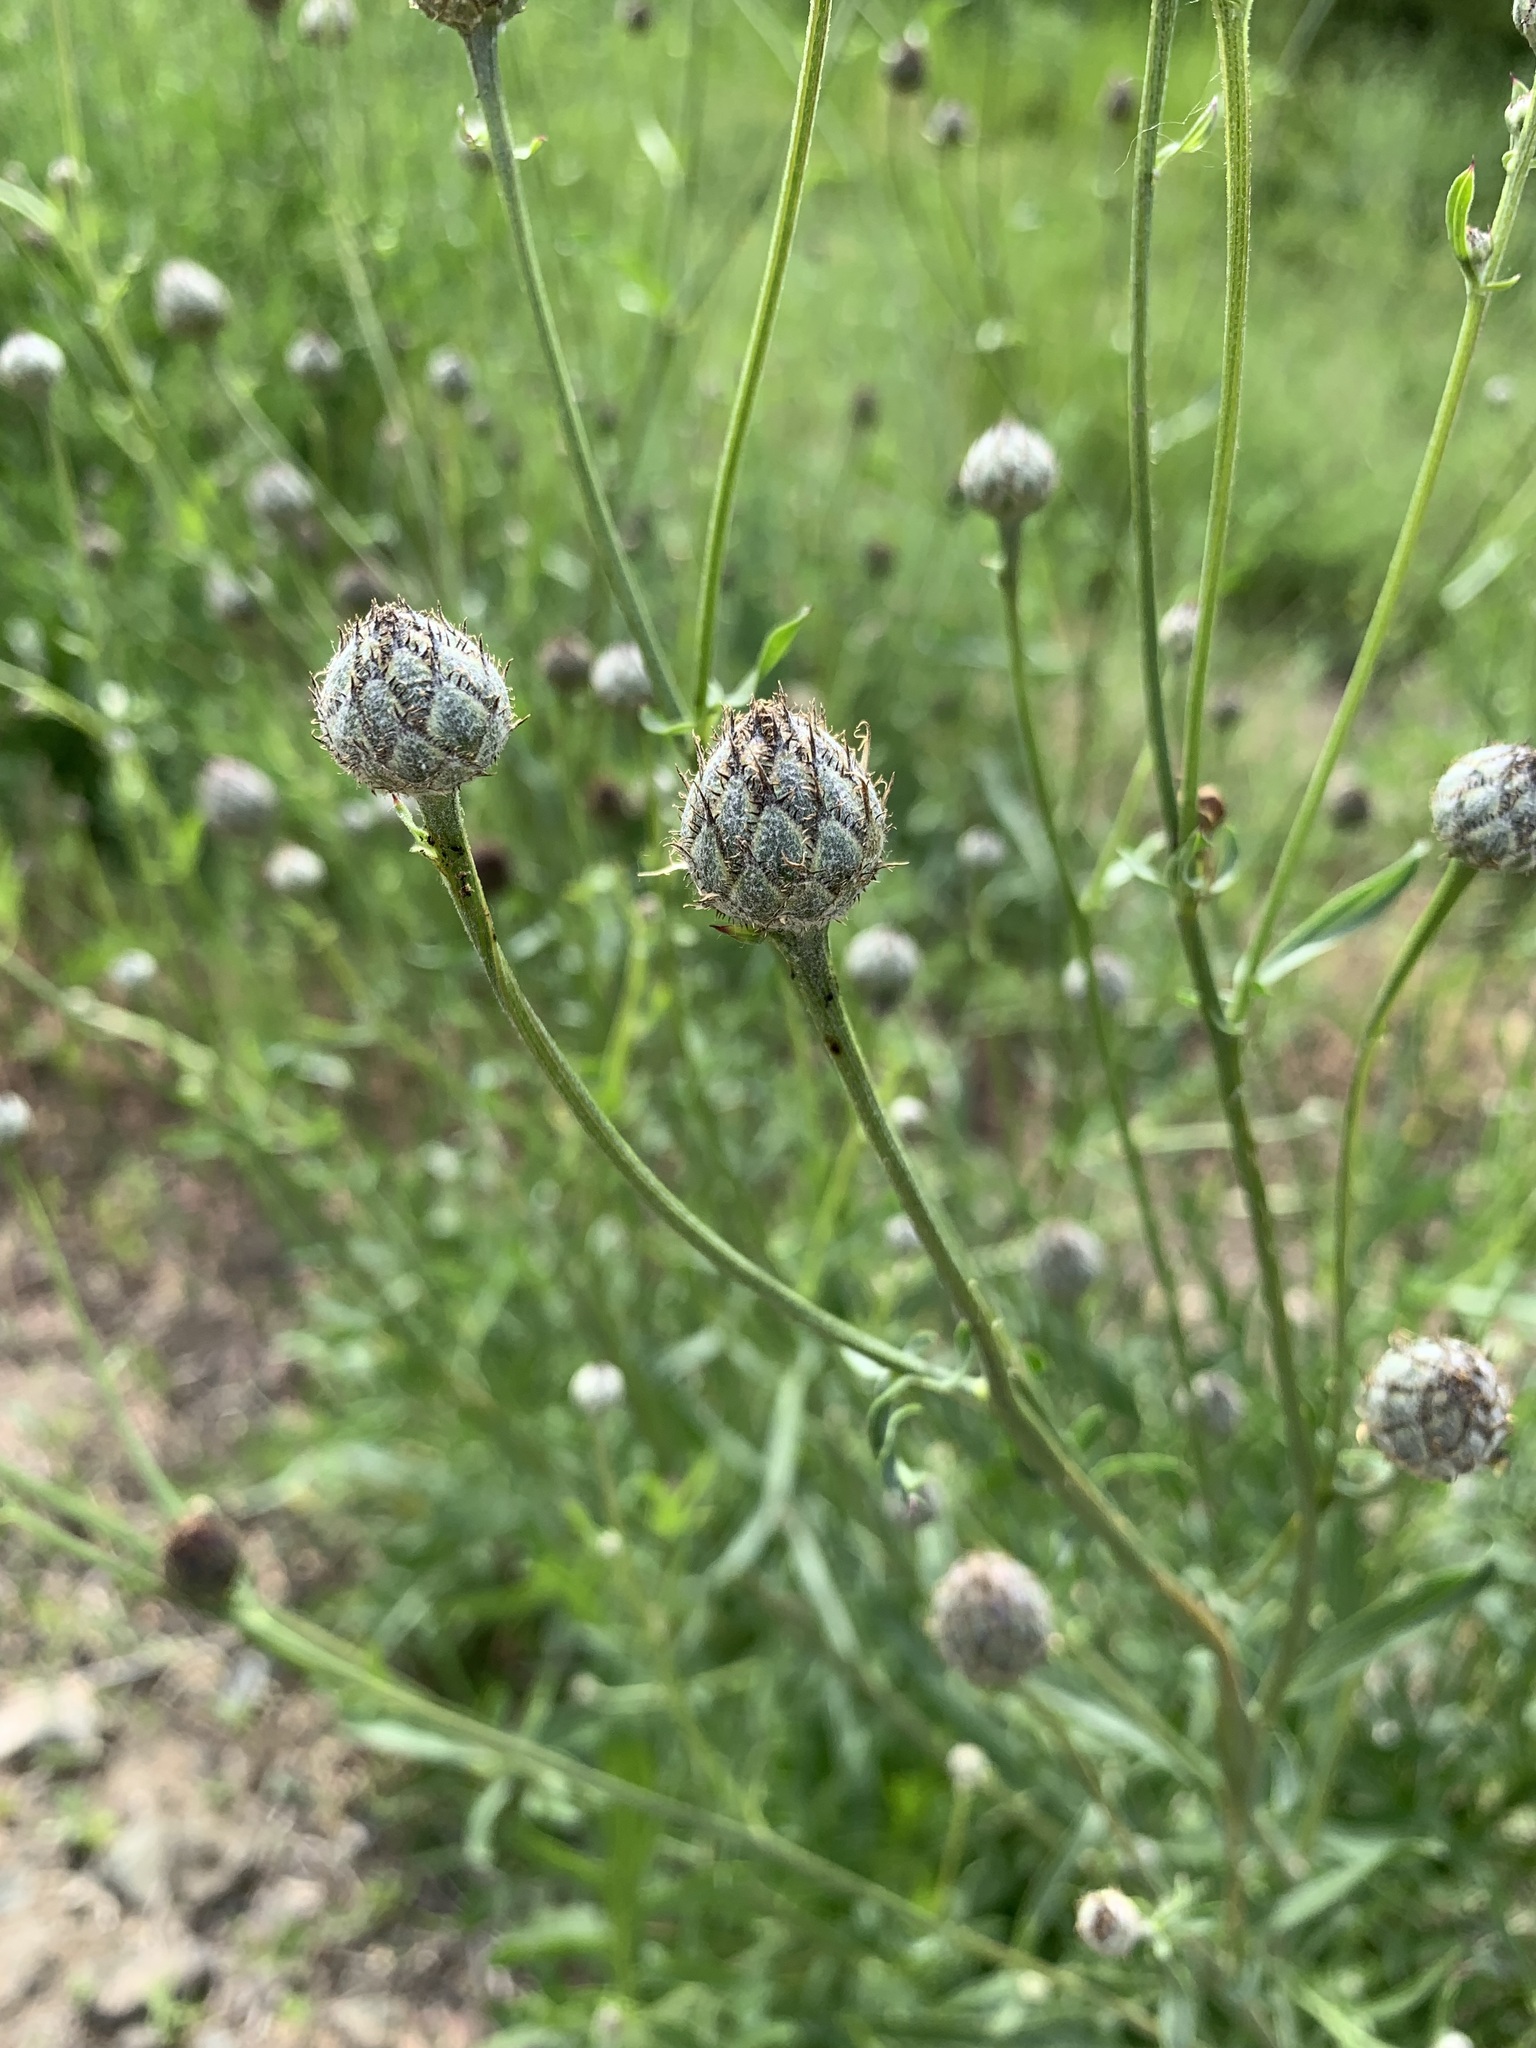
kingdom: Plantae
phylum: Tracheophyta
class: Magnoliopsida
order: Asterales
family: Asteraceae
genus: Centaurea
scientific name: Centaurea apiculata
